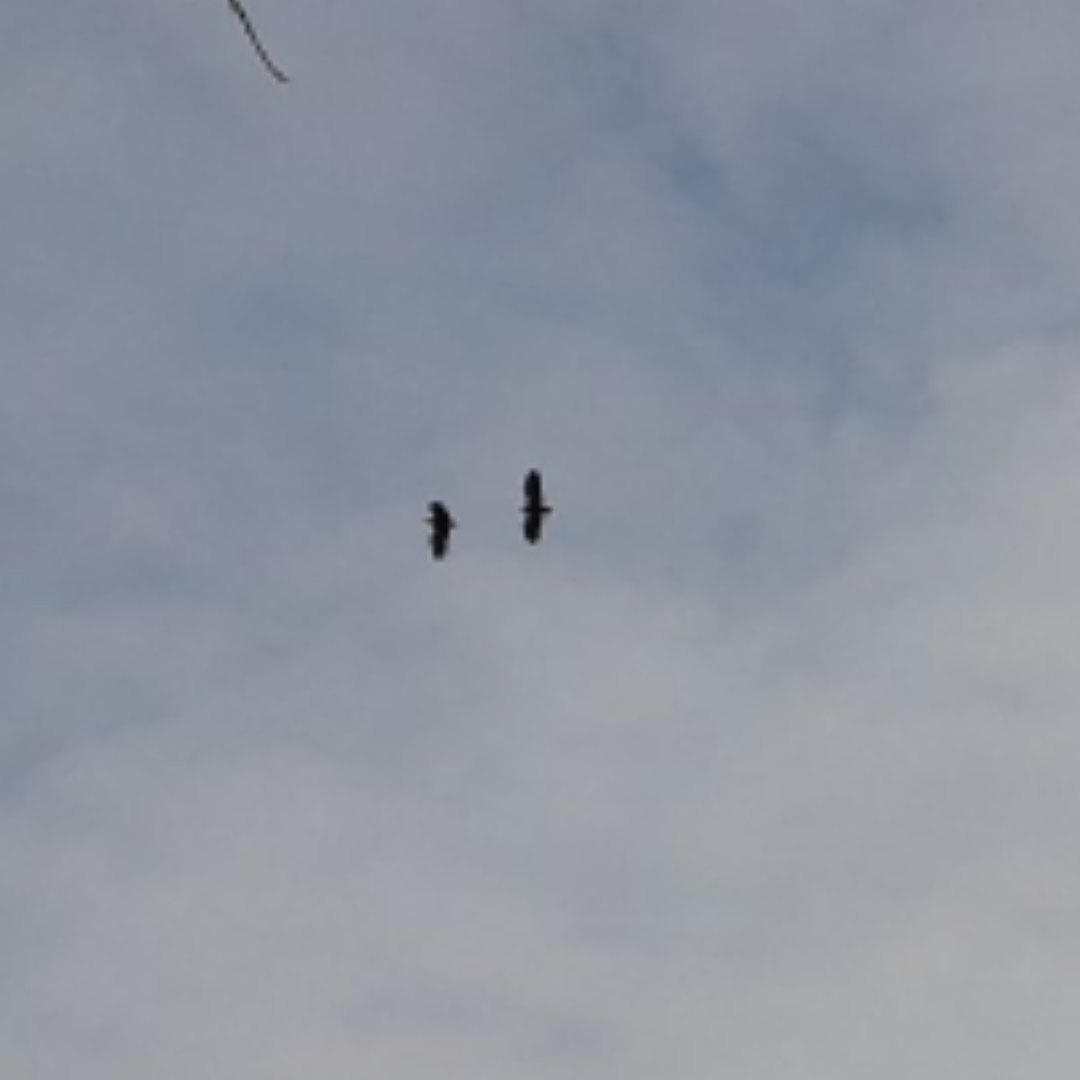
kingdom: Animalia
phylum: Chordata
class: Aves
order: Accipitriformes
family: Accipitridae
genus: Haliaeetus
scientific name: Haliaeetus albicilla
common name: White-tailed eagle
